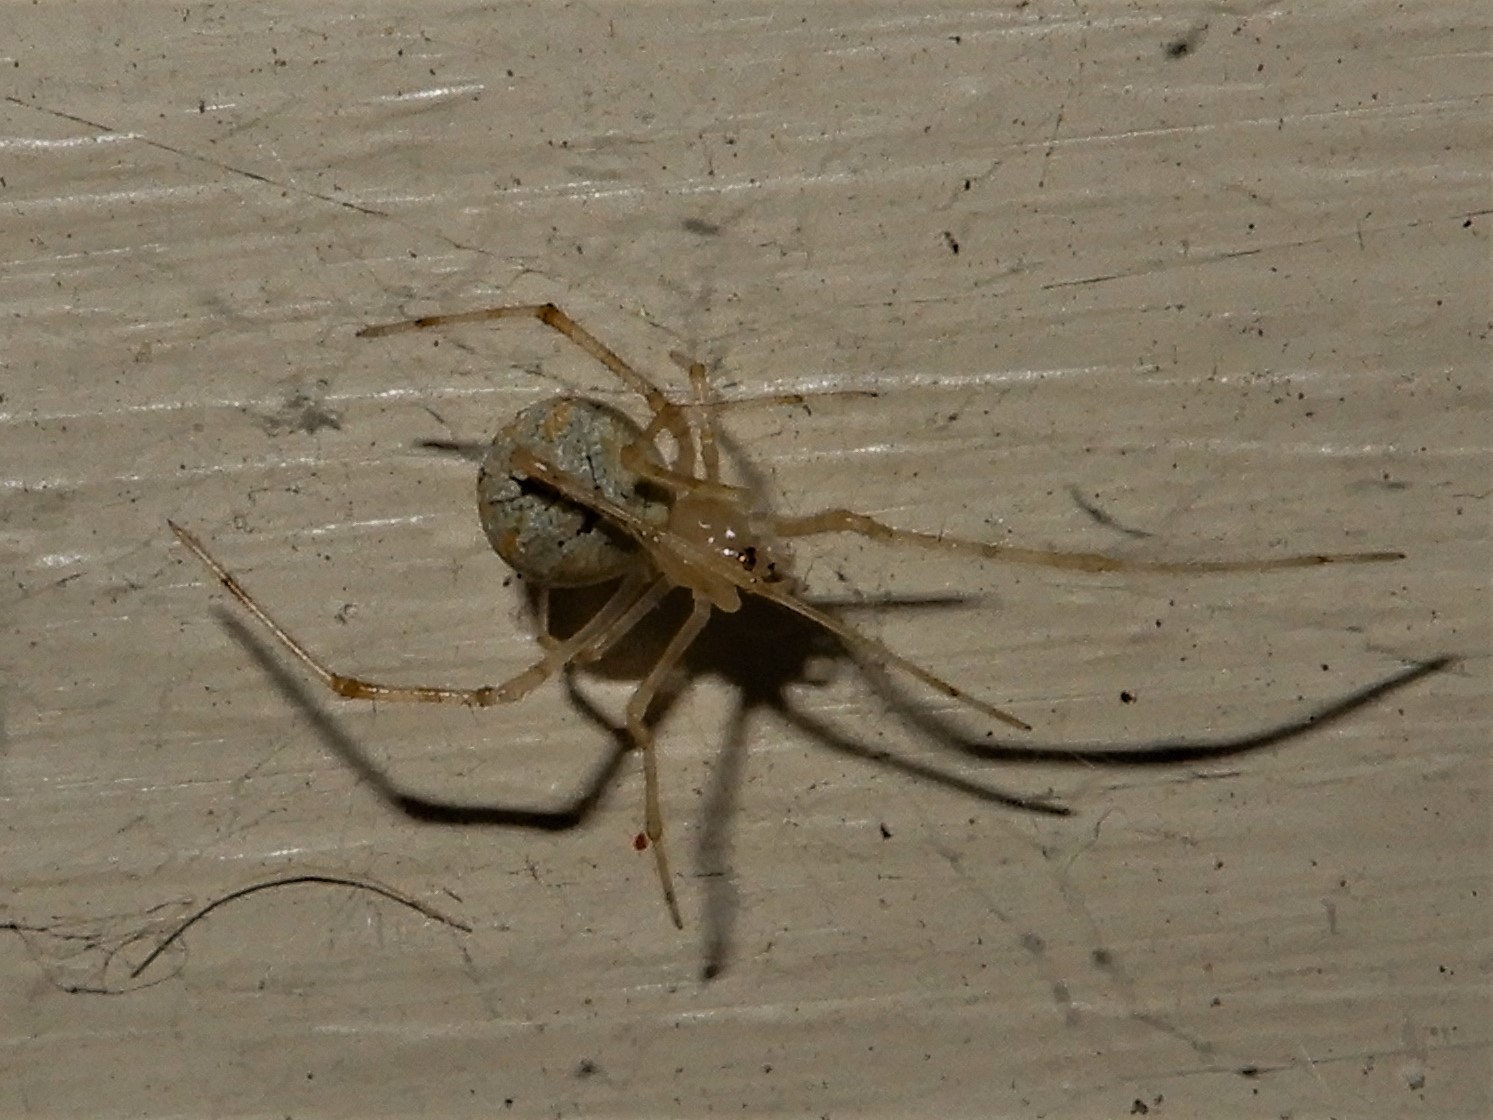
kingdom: Animalia
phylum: Arthropoda
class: Arachnida
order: Araneae
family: Theridiidae
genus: Cryptachaea
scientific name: Cryptachaea gigantipes
